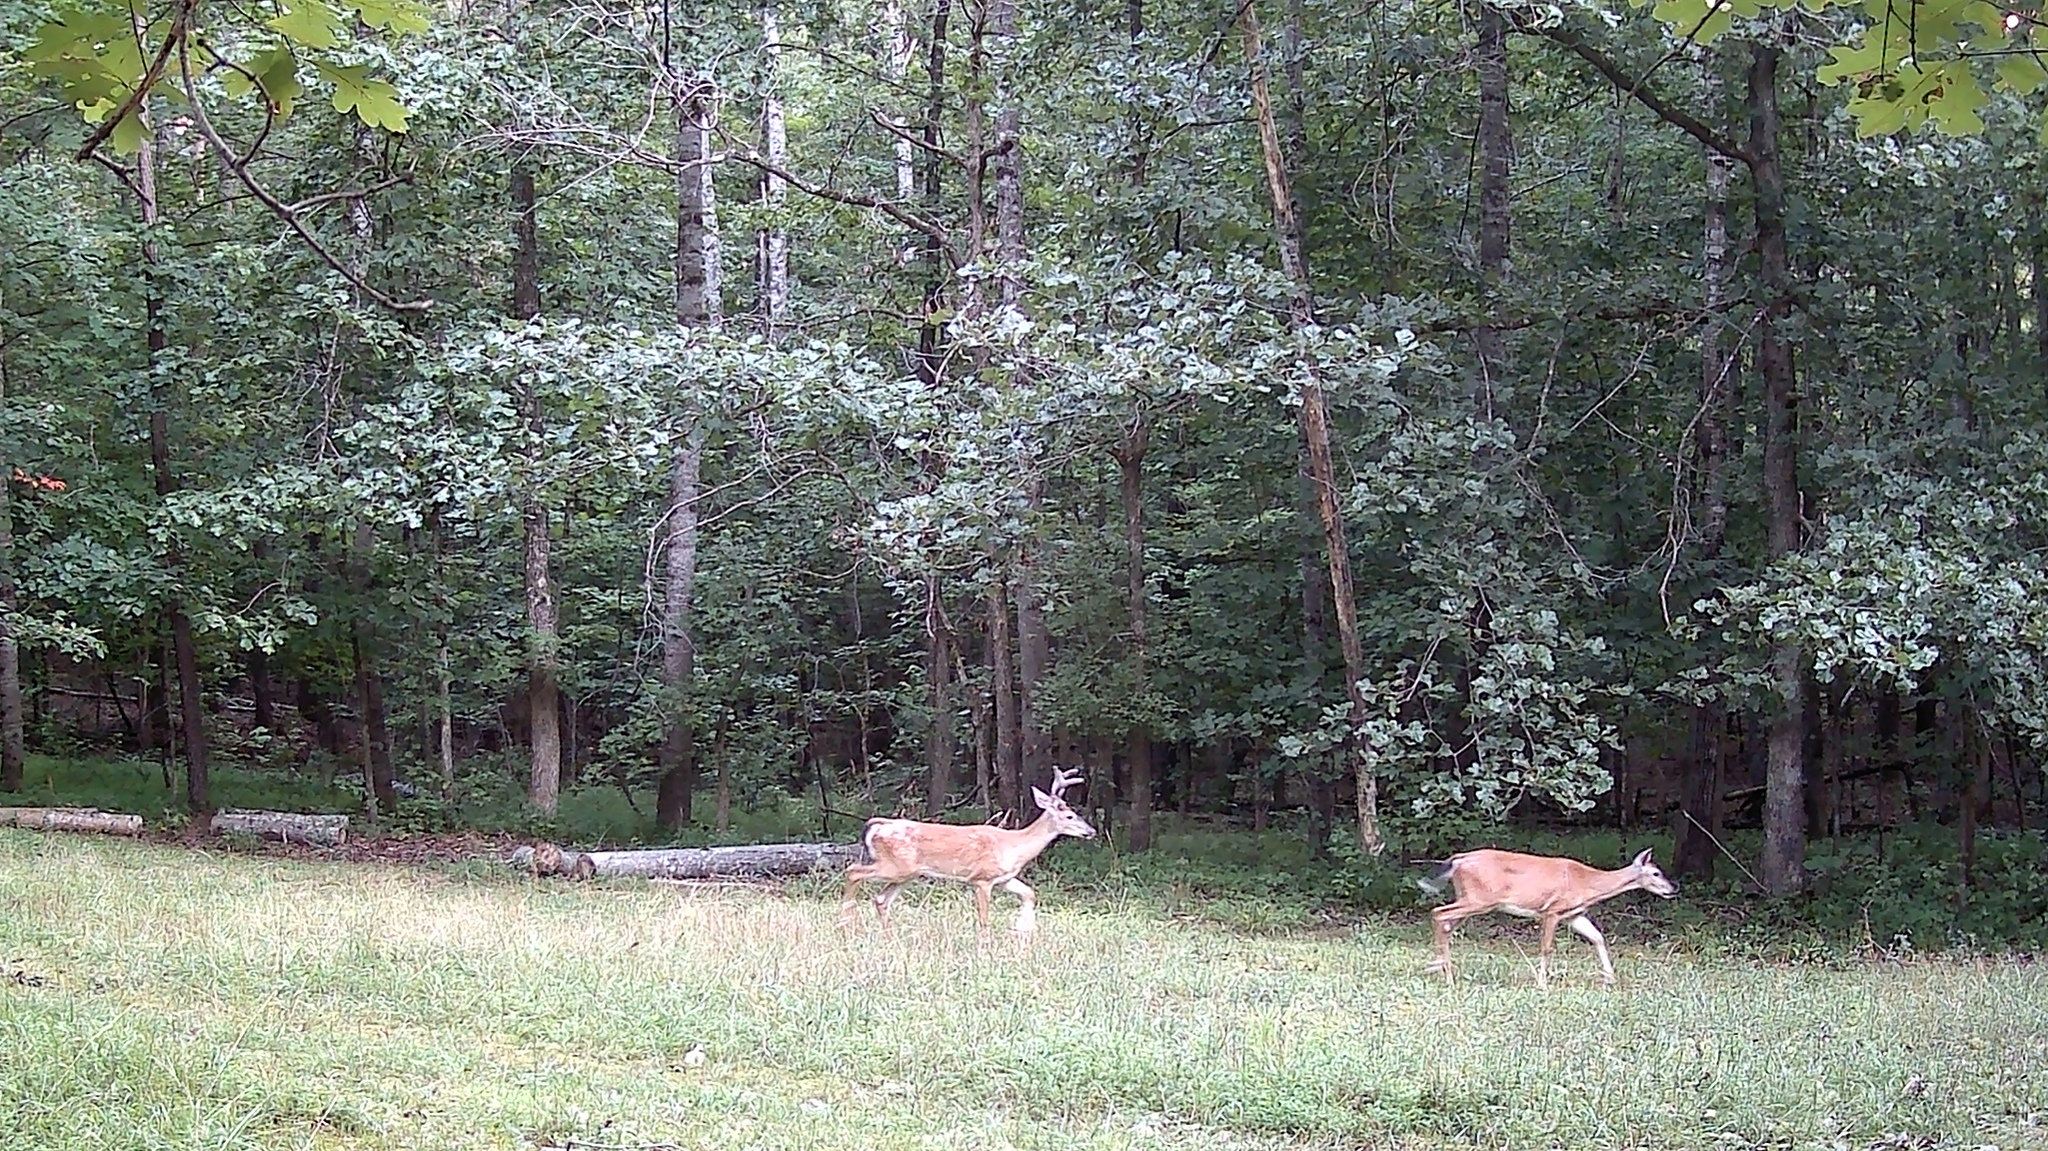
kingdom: Animalia
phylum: Chordata
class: Mammalia
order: Artiodactyla
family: Cervidae
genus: Odocoileus
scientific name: Odocoileus virginianus
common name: White-tailed deer
